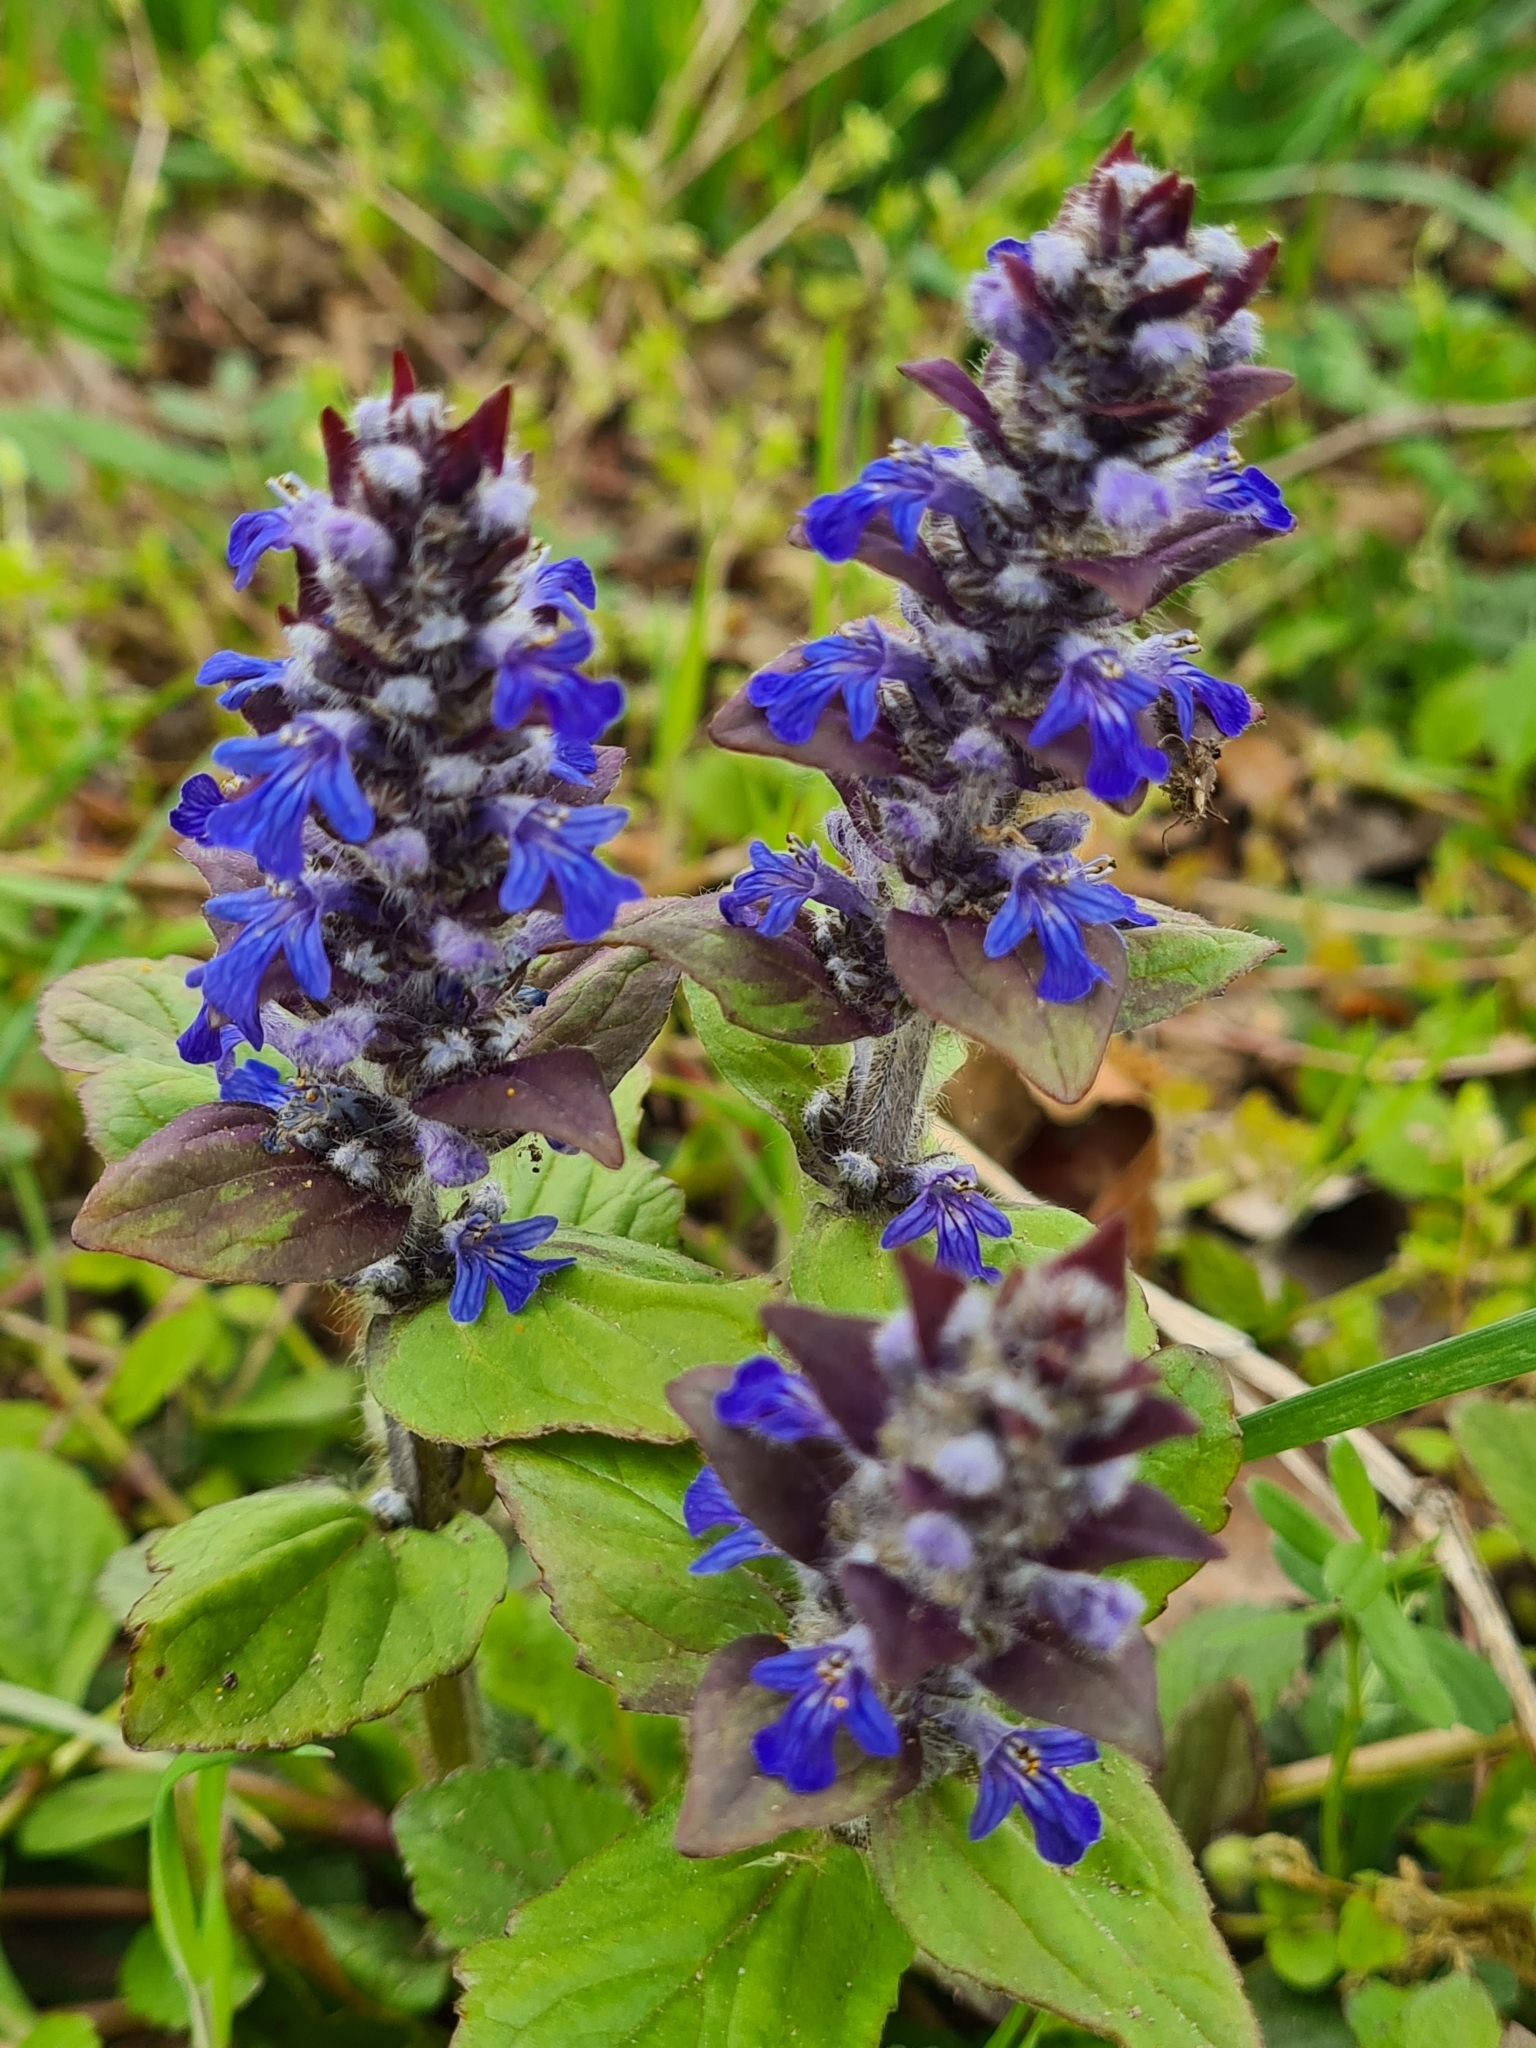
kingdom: Plantae
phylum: Tracheophyta
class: Magnoliopsida
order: Lamiales
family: Lamiaceae
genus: Ajuga
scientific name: Ajuga reptans
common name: Bugle
